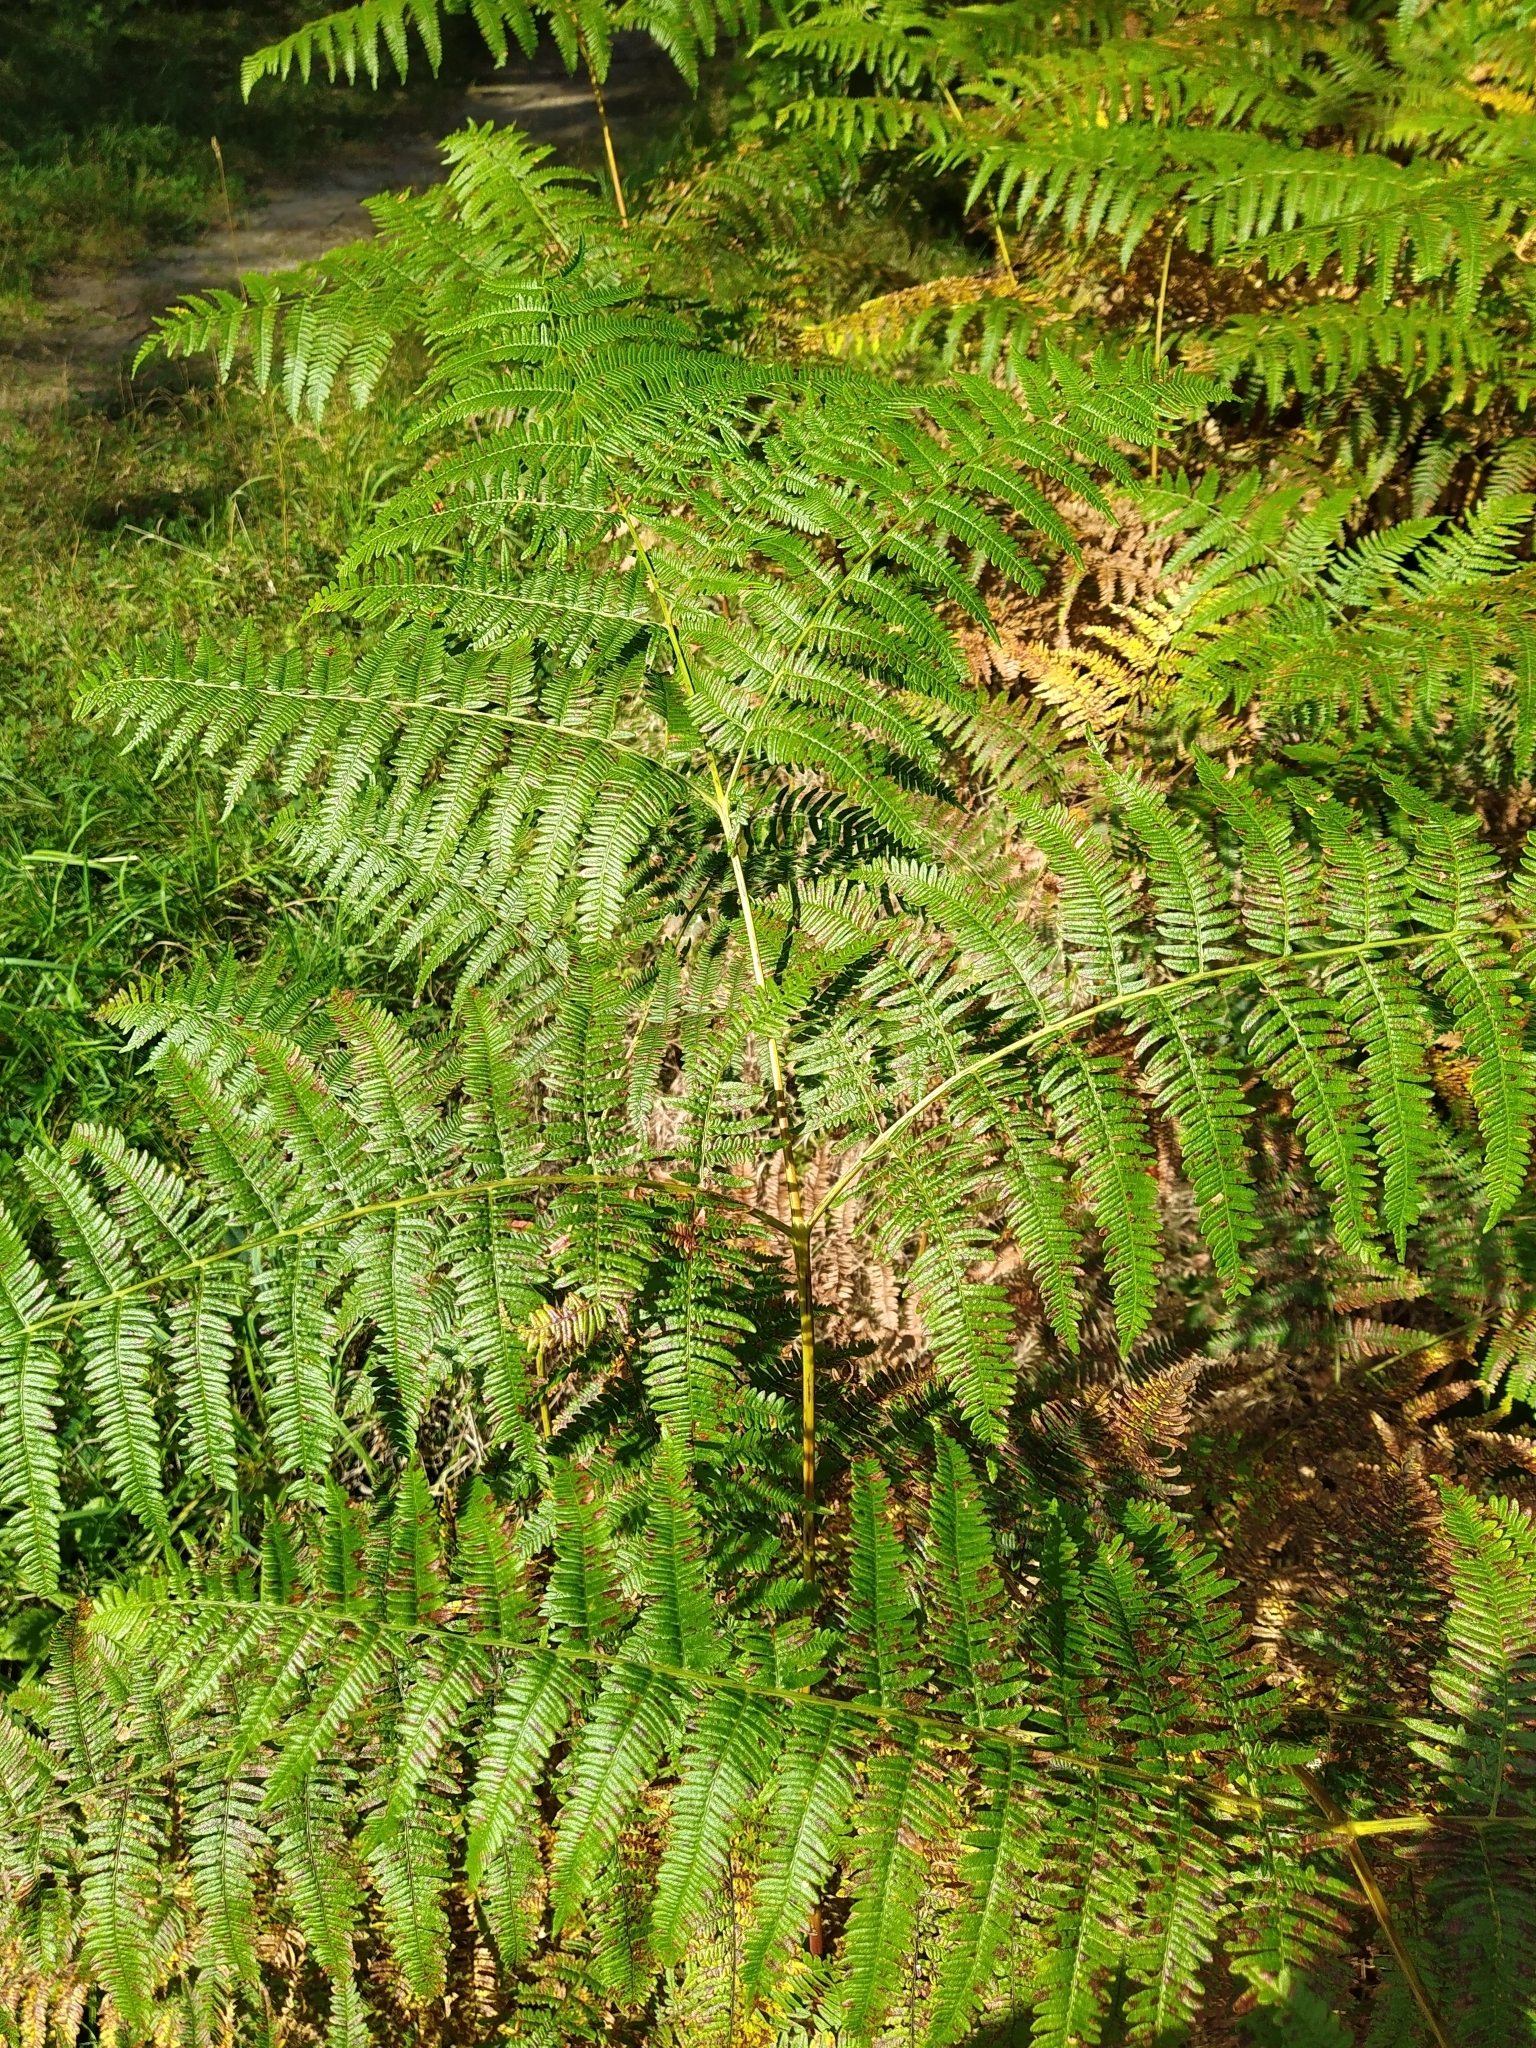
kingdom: Plantae
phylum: Tracheophyta
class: Polypodiopsida
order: Polypodiales
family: Dennstaedtiaceae
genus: Pteridium
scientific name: Pteridium aquilinum
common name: Bracken
